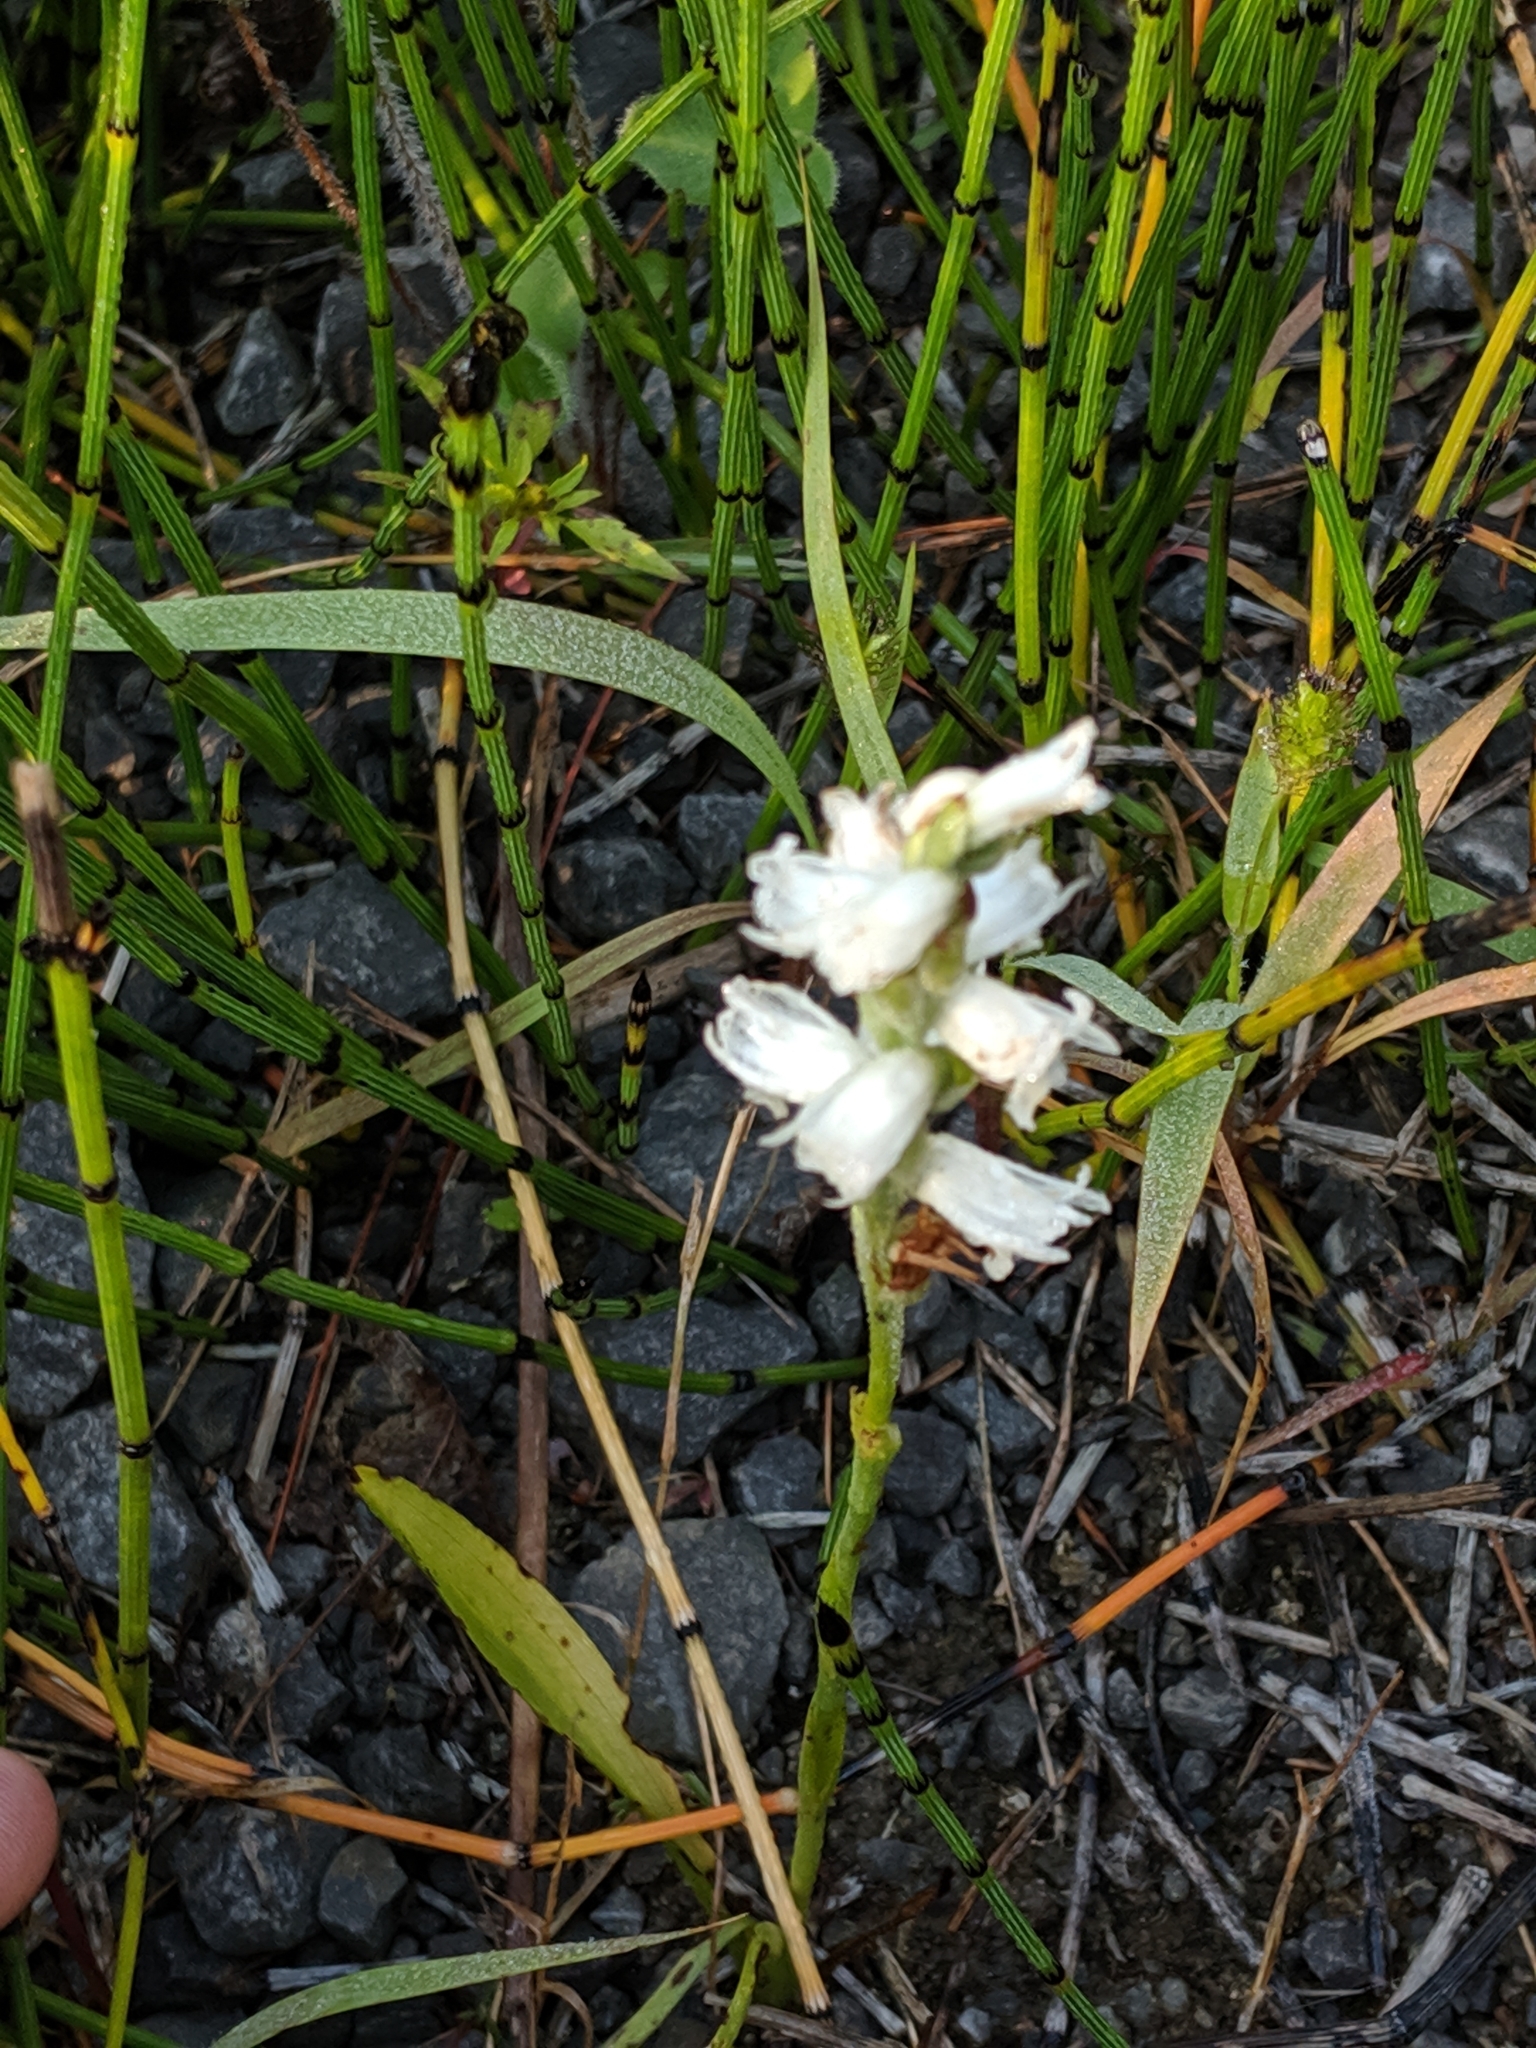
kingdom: Plantae
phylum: Tracheophyta
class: Liliopsida
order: Asparagales
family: Orchidaceae
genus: Spiranthes
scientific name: Spiranthes incurva
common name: Sphinx ladies'-tresses
